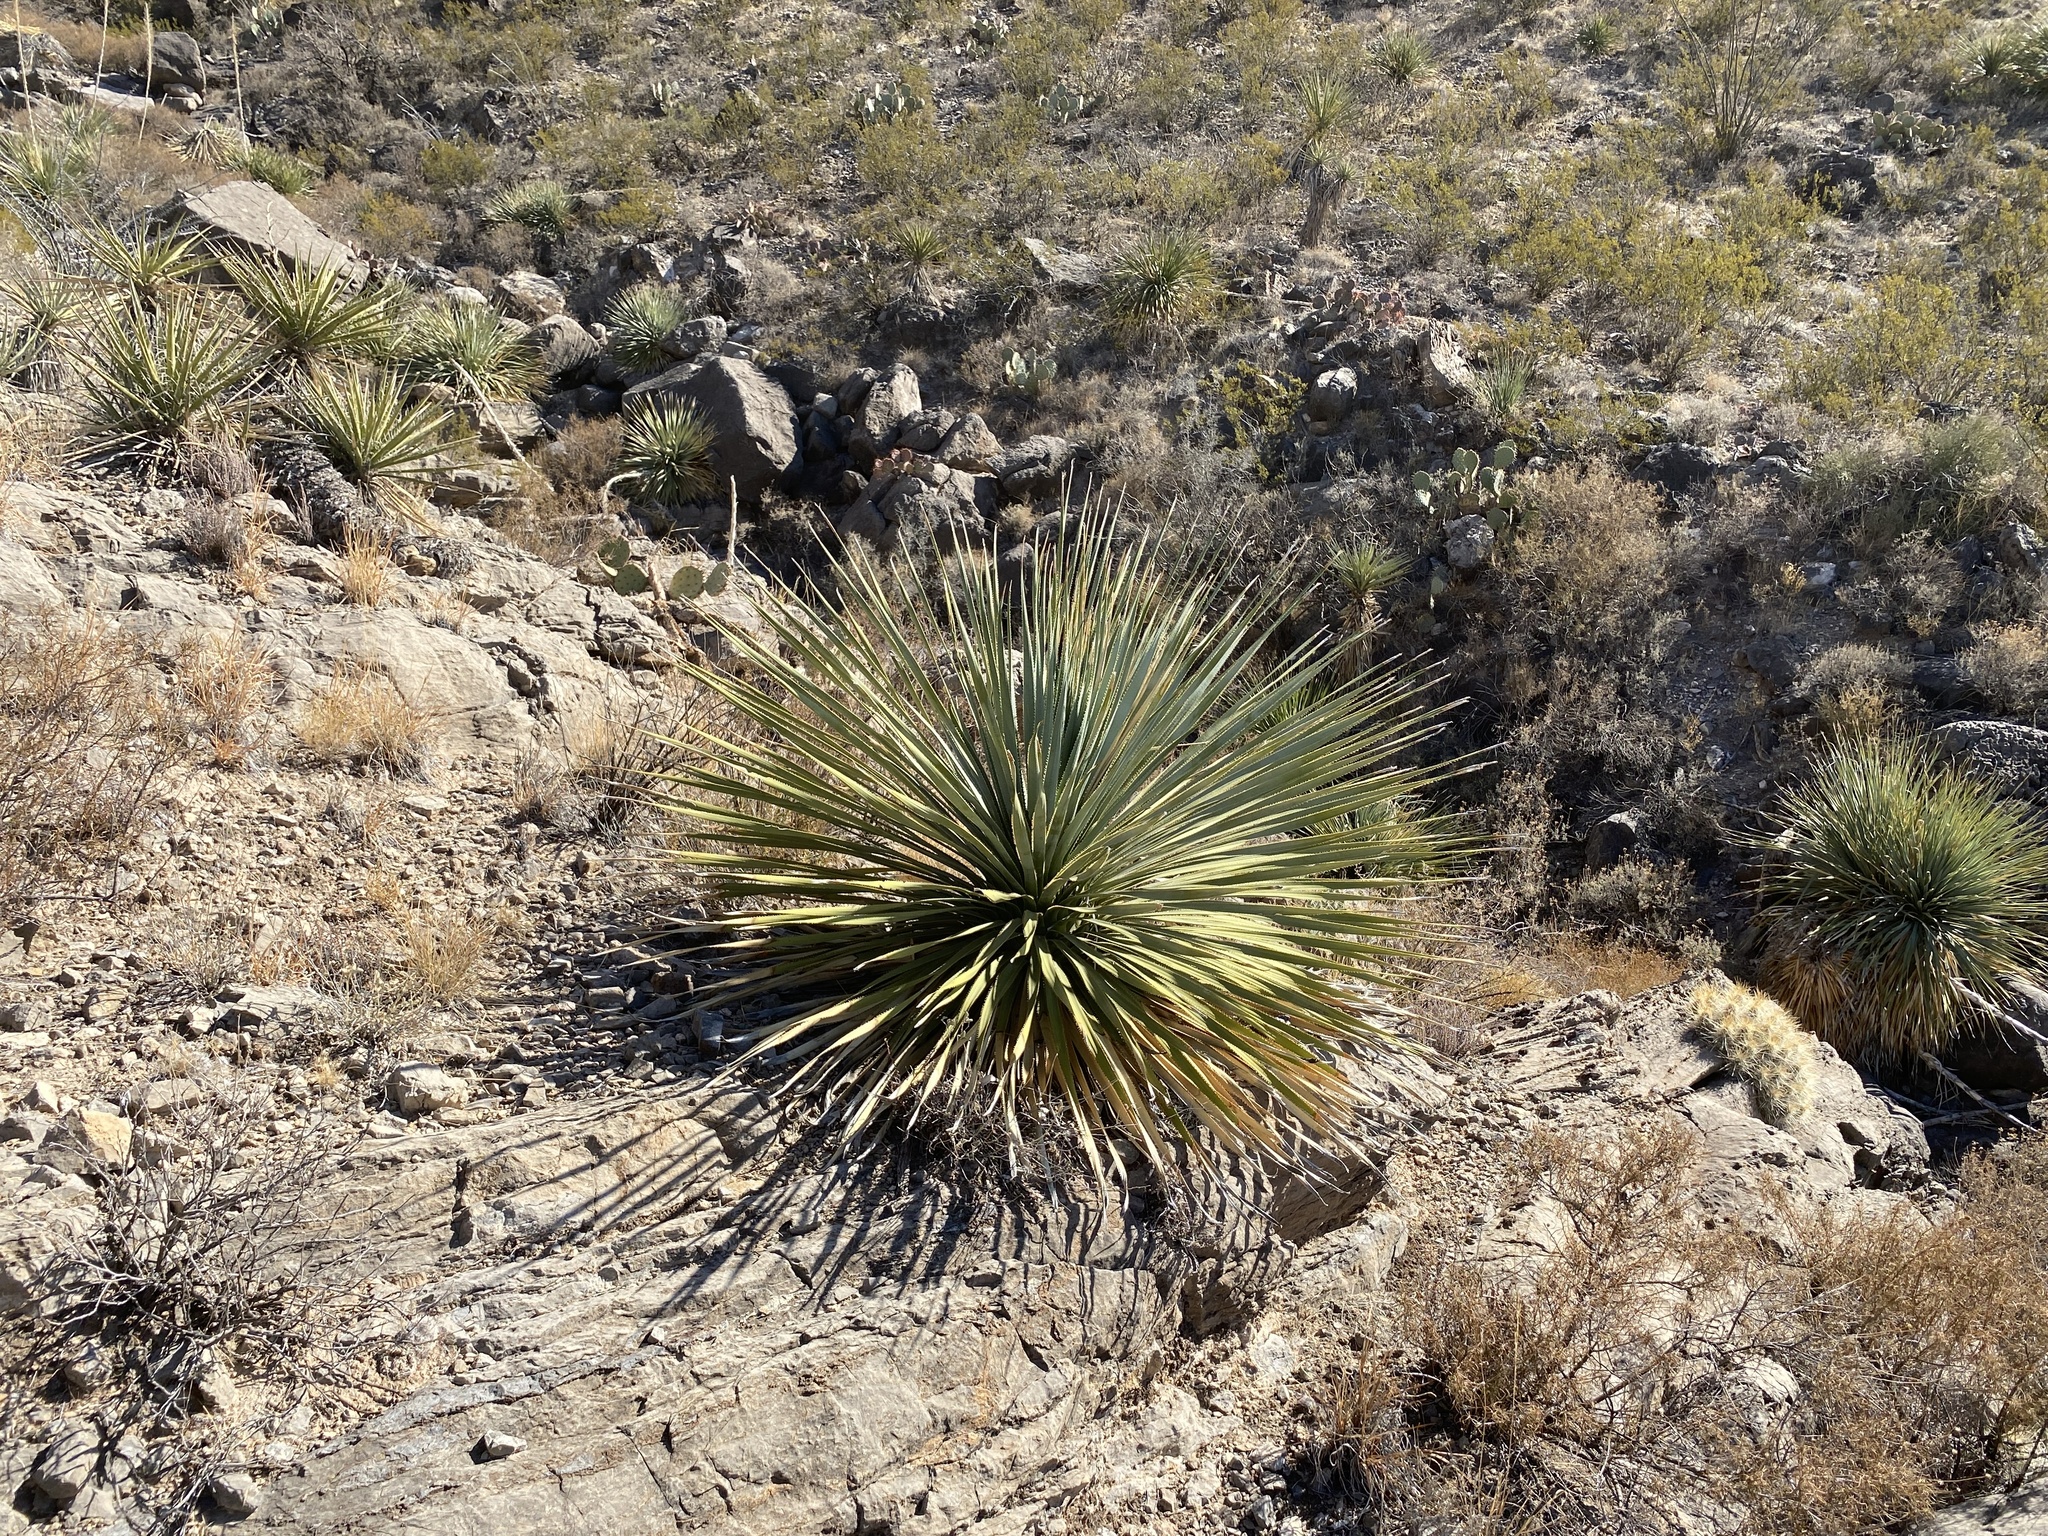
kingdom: Plantae
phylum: Tracheophyta
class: Liliopsida
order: Asparagales
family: Asparagaceae
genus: Dasylirion
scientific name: Dasylirion wheeleri
